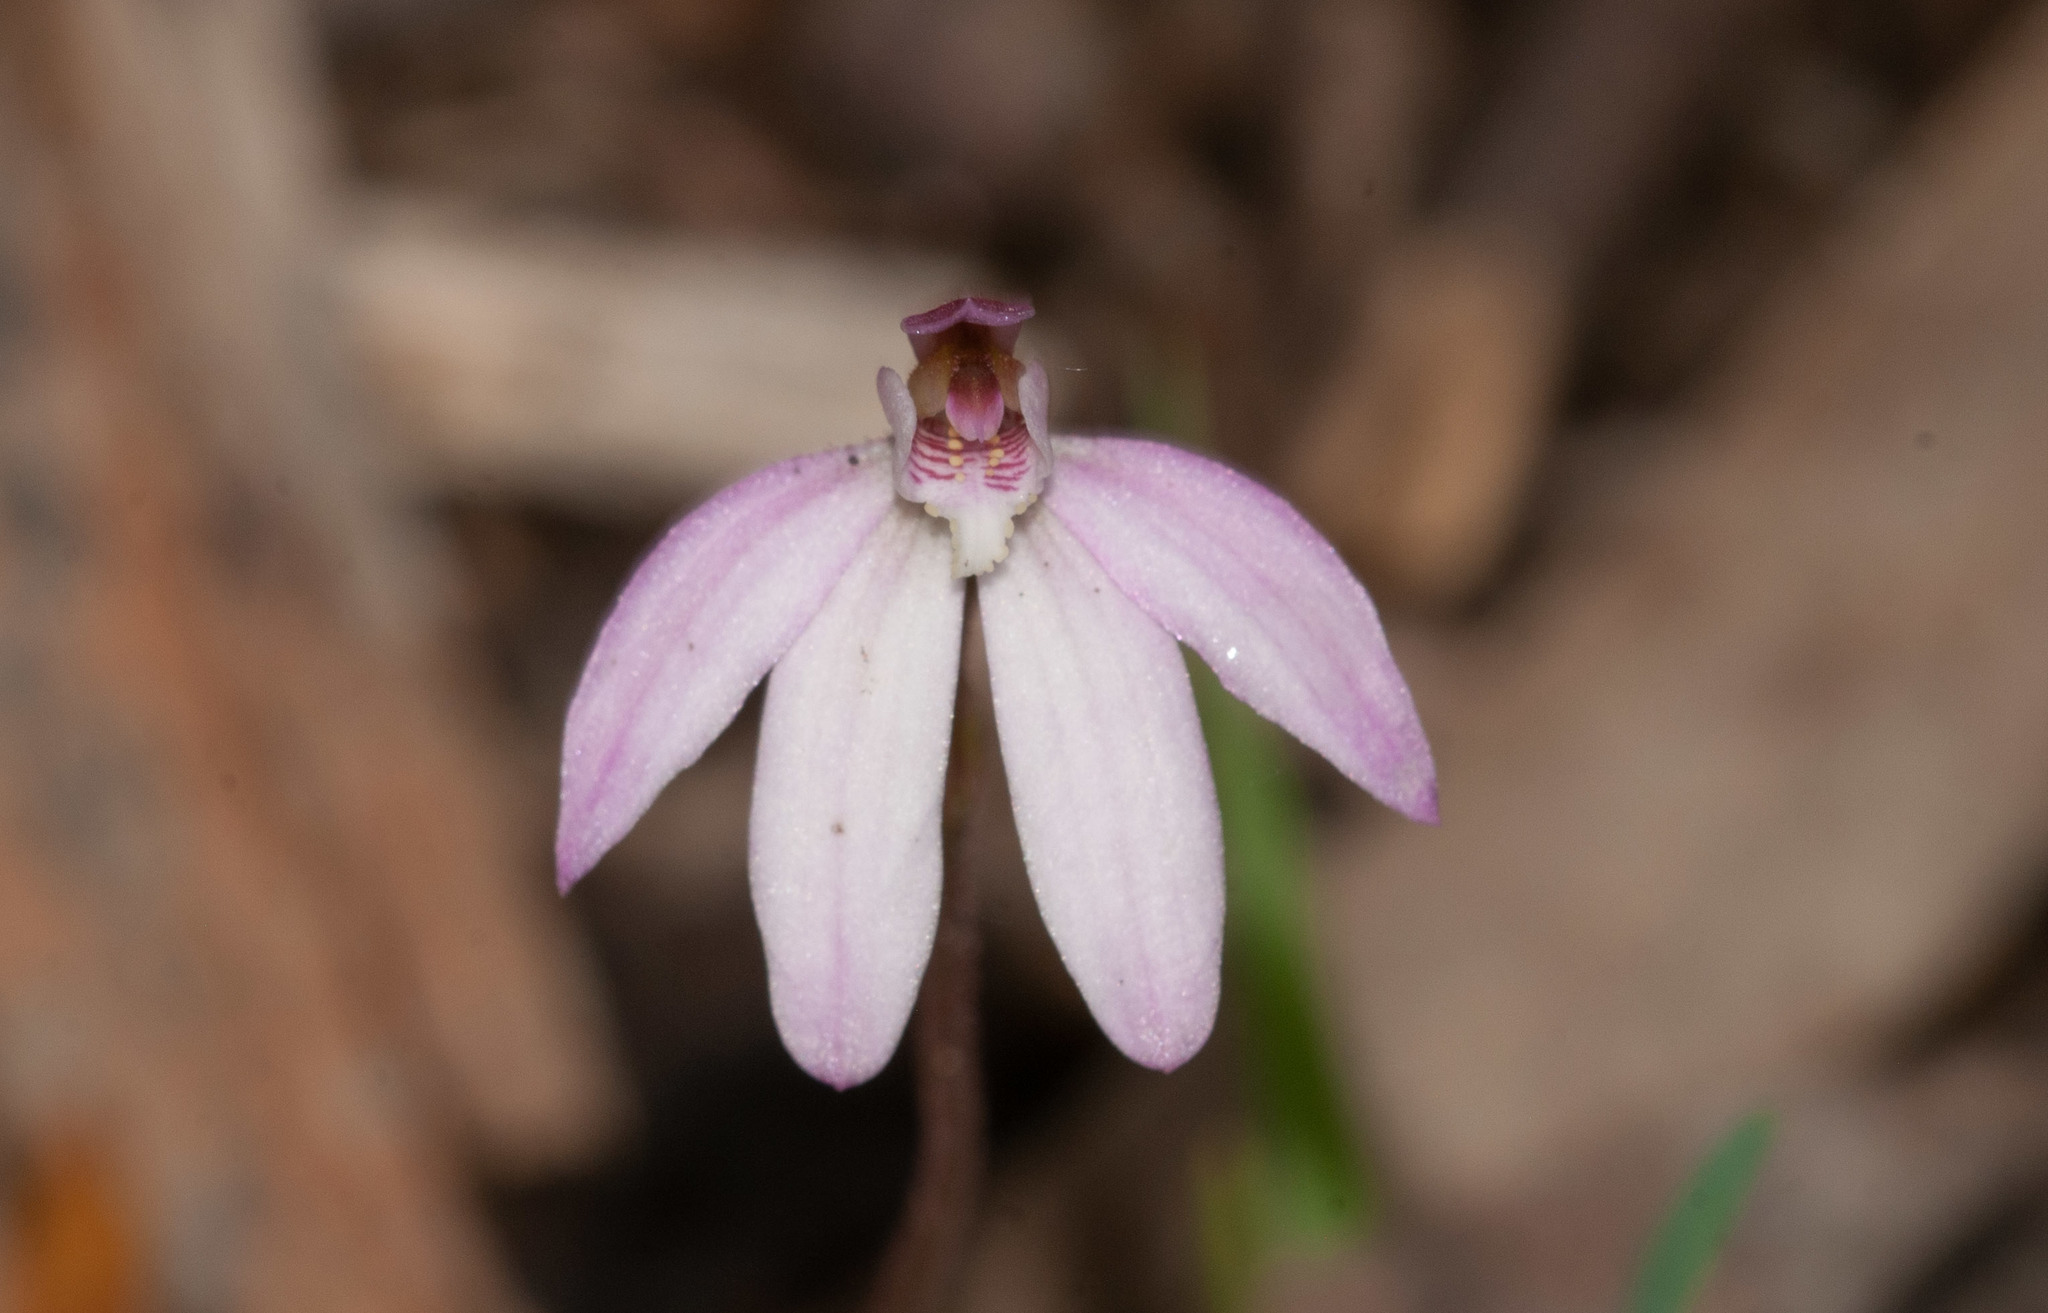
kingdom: Plantae
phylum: Tracheophyta
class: Liliopsida
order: Asparagales
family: Orchidaceae
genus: Caladenia
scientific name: Caladenia carnea
